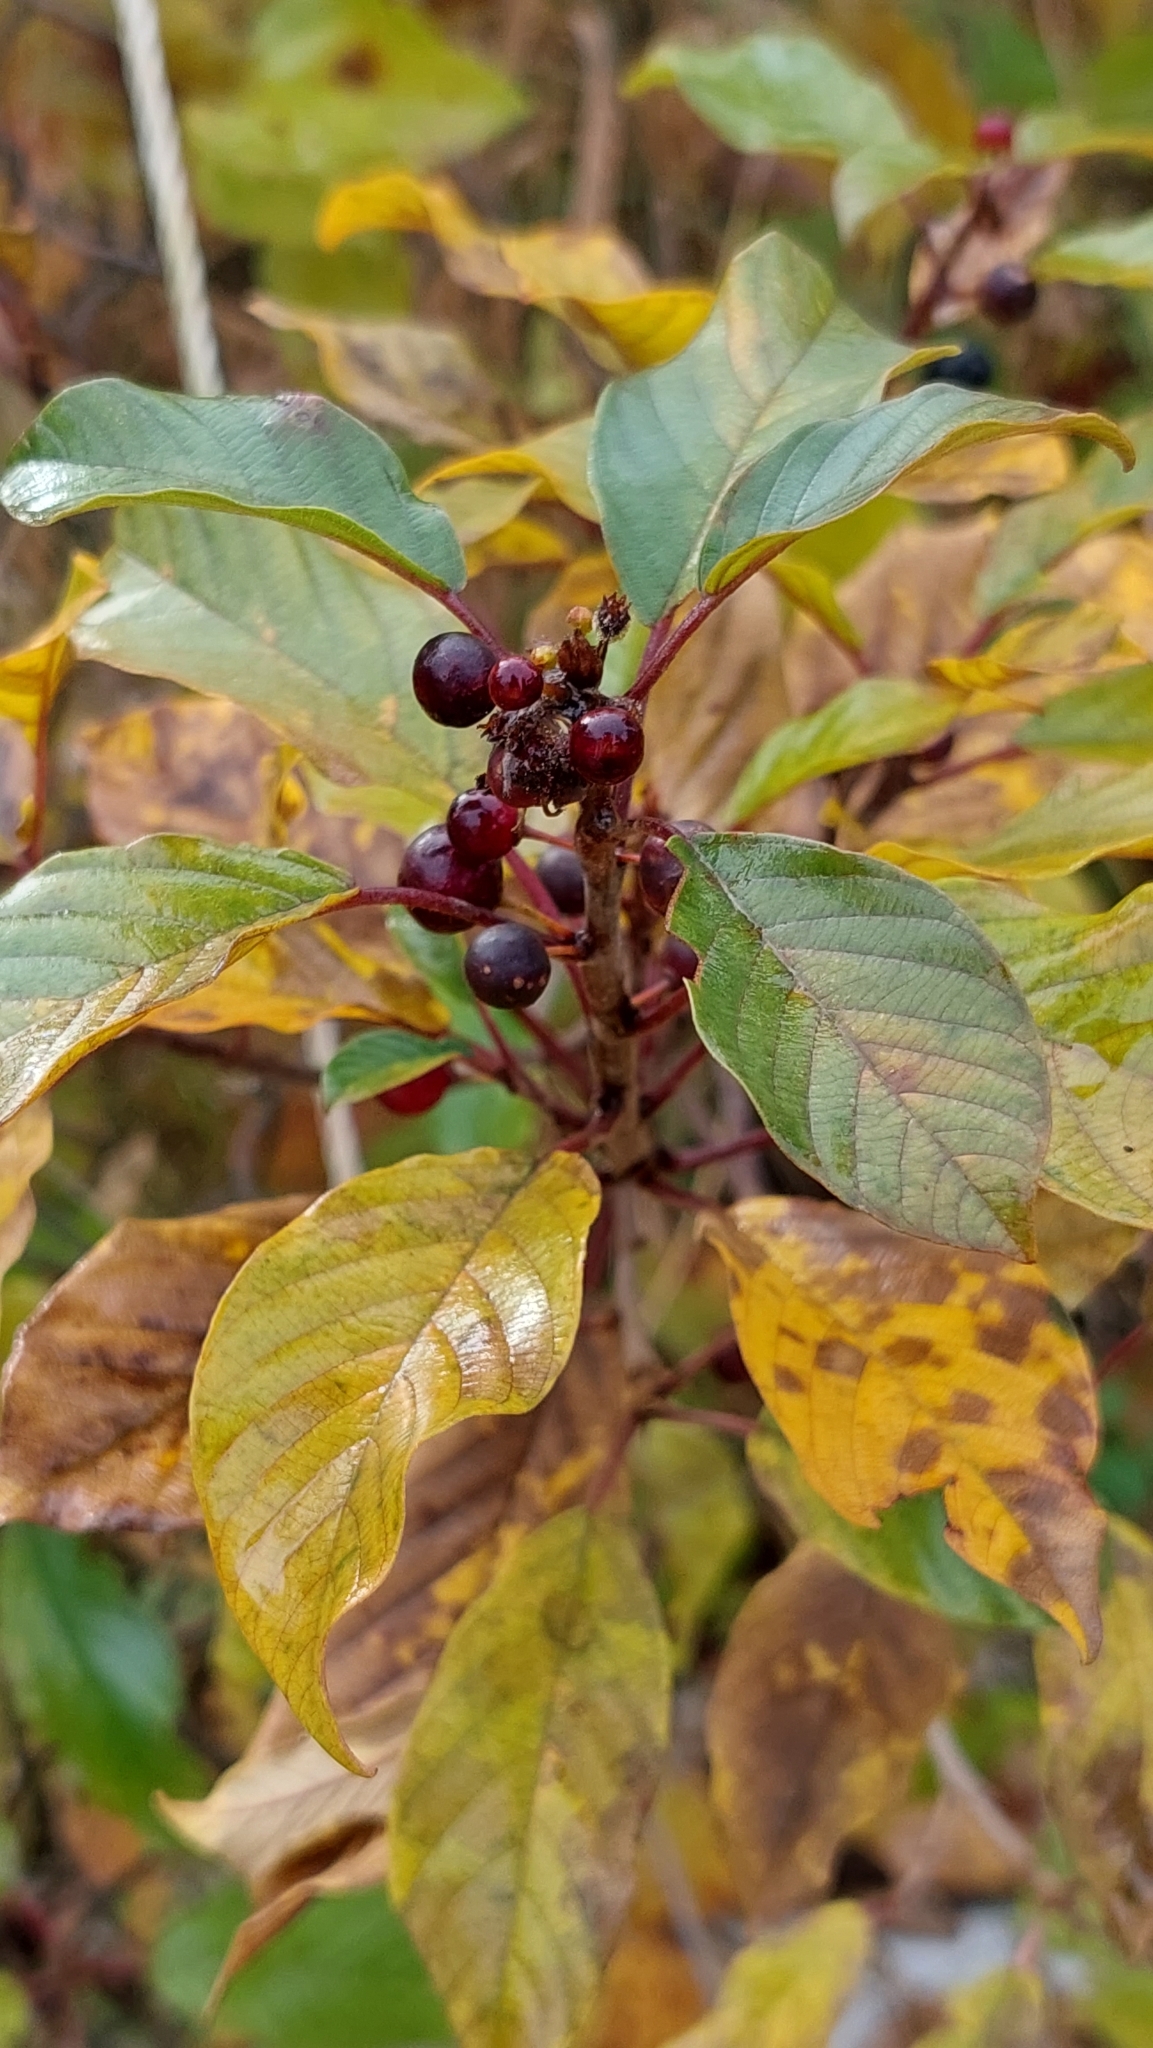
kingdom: Plantae
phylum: Tracheophyta
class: Magnoliopsida
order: Rosales
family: Rhamnaceae
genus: Frangula
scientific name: Frangula alnus
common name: Alder buckthorn
